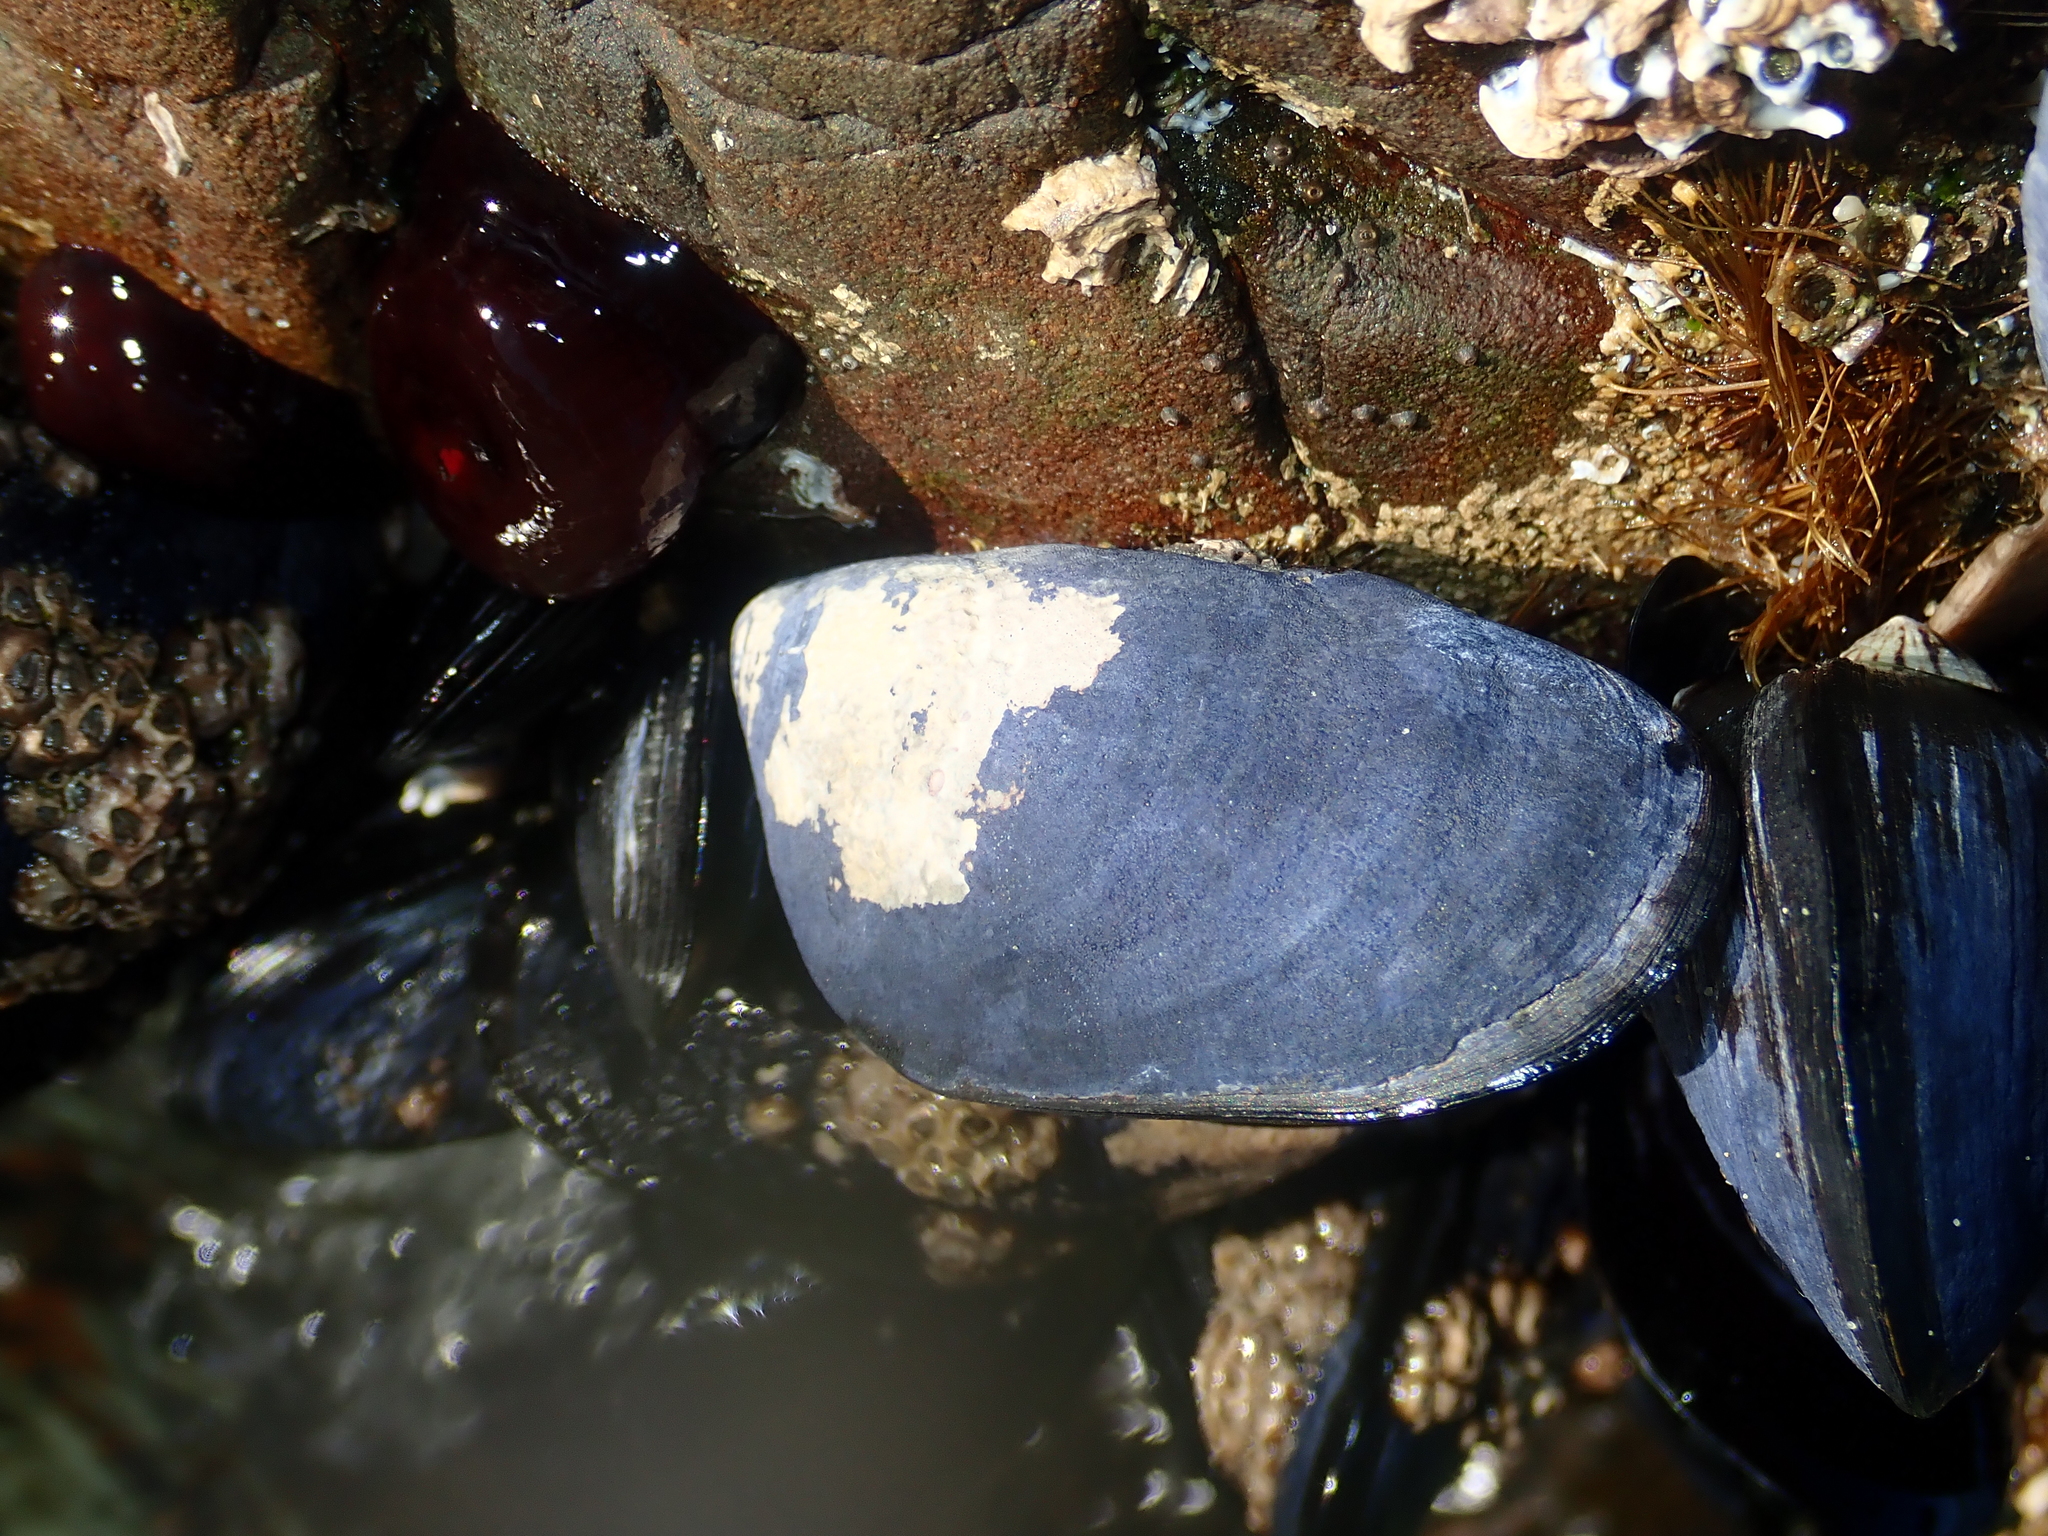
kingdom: Animalia
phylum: Mollusca
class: Bivalvia
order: Mytilida
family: Mytilidae
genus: Mytilus
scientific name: Mytilus planulatus
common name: Australian mussel
